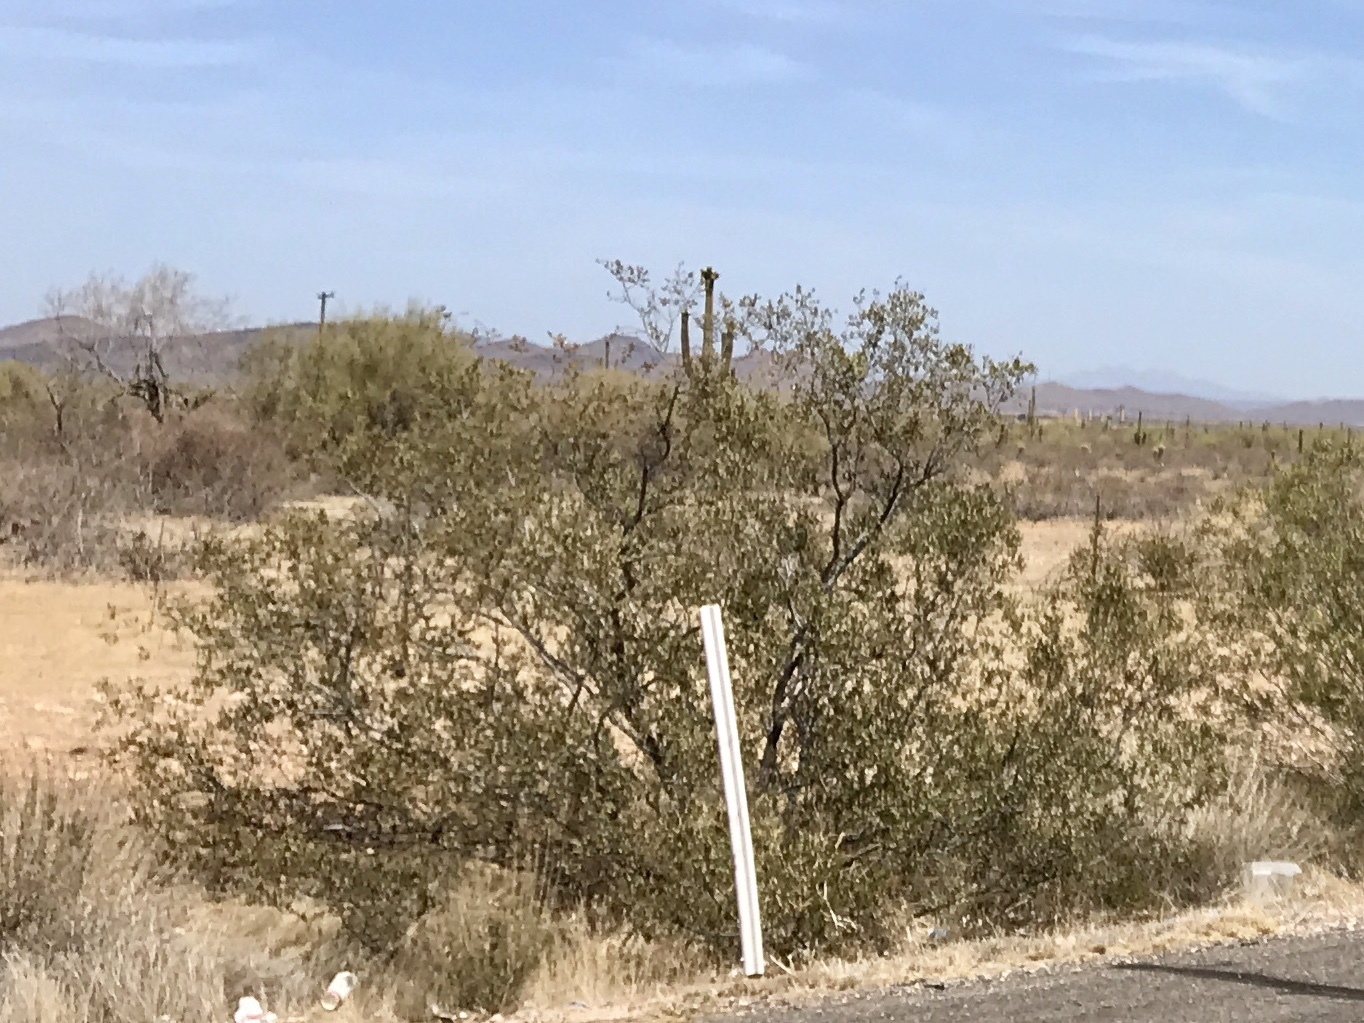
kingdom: Plantae
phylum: Tracheophyta
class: Magnoliopsida
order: Zygophyllales
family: Zygophyllaceae
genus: Larrea
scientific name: Larrea tridentata
